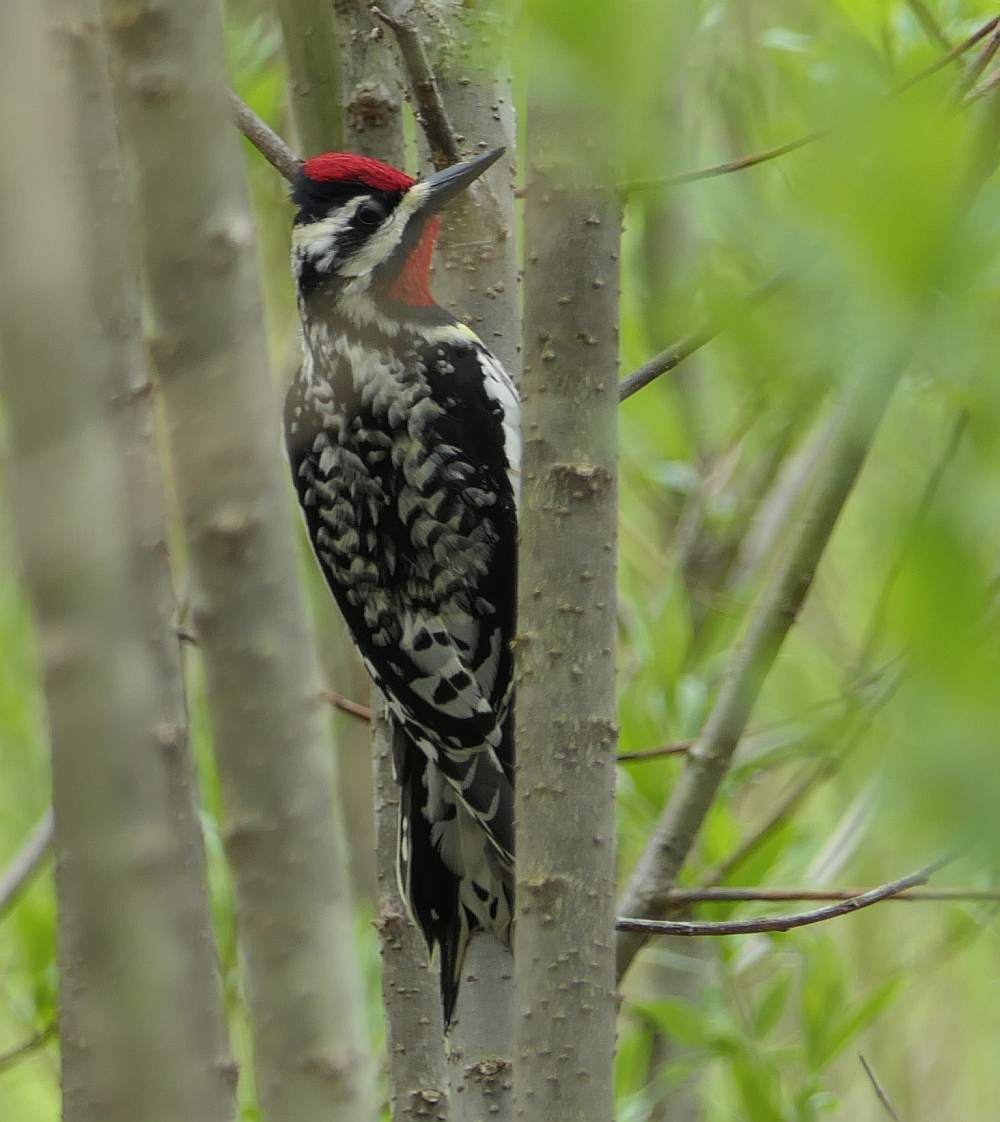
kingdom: Animalia
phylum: Chordata
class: Aves
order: Piciformes
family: Picidae
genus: Sphyrapicus
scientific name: Sphyrapicus varius
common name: Yellow-bellied sapsucker
